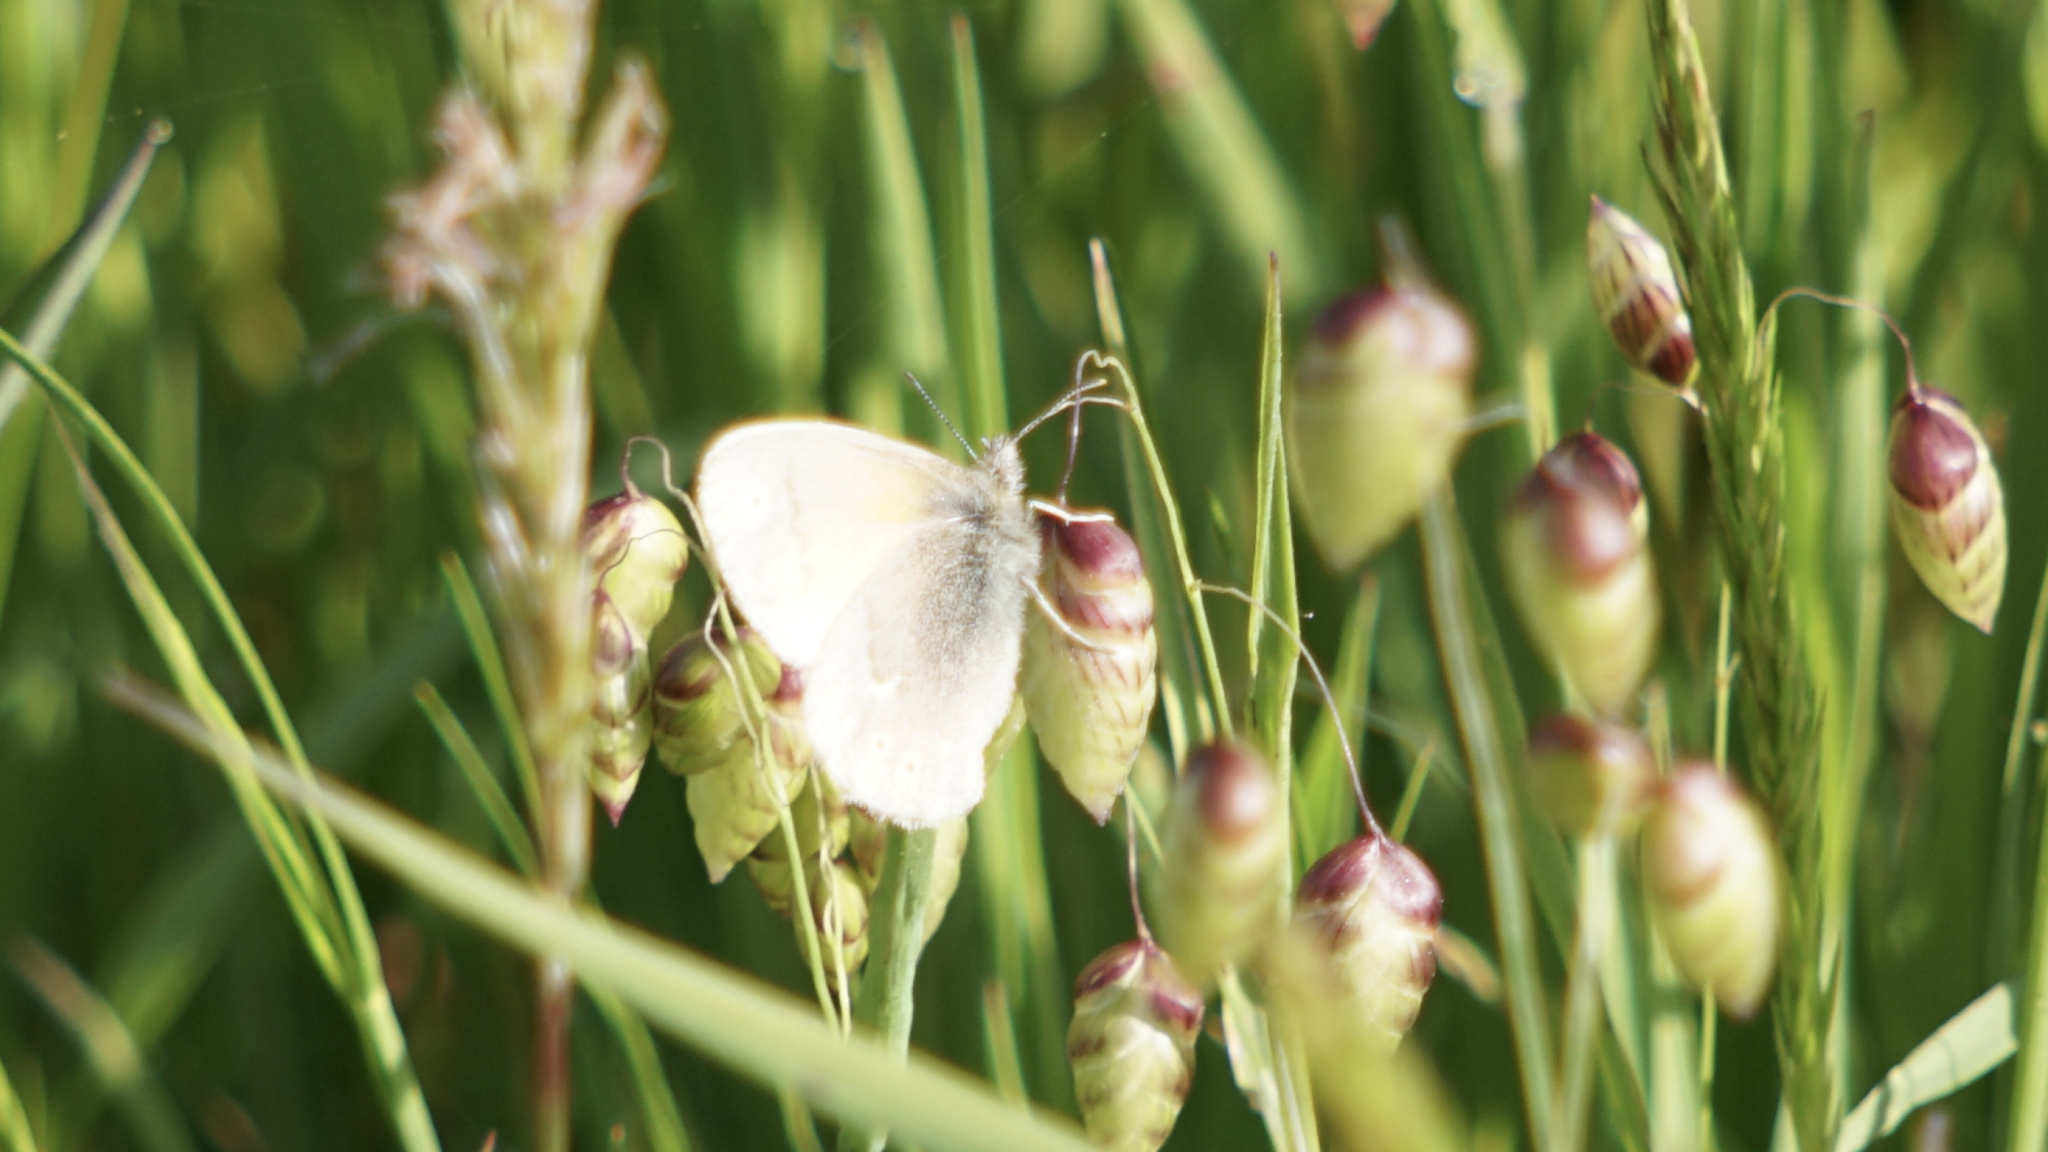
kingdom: Animalia
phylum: Arthropoda
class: Insecta
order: Lepidoptera
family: Nymphalidae
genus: Coenonympha
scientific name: Coenonympha california
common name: Common ringlet
